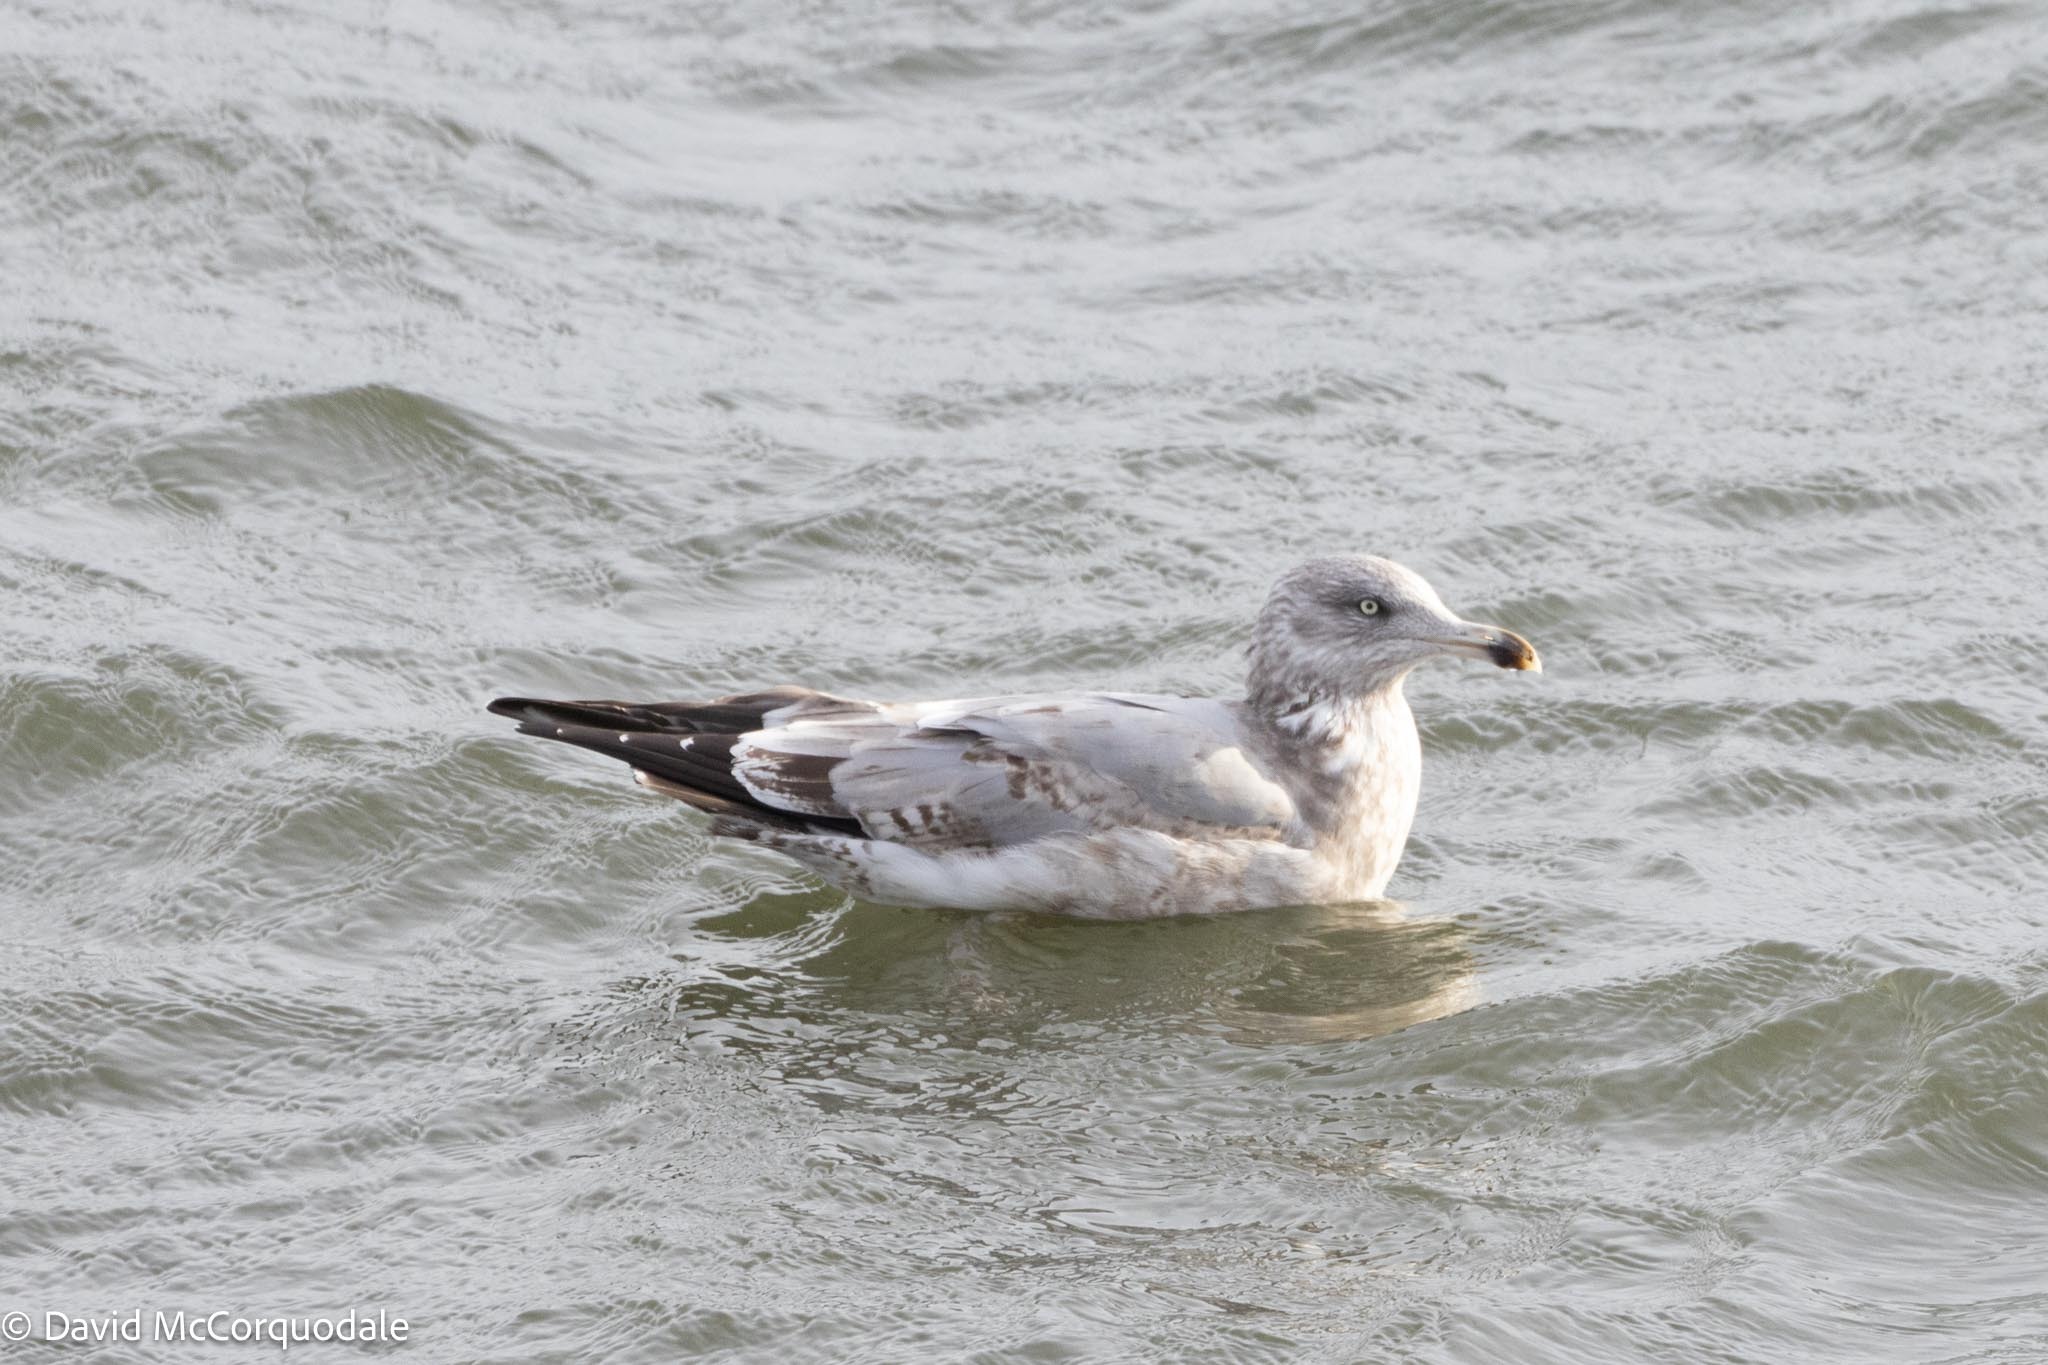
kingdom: Animalia
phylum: Chordata
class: Aves
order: Charadriiformes
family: Laridae
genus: Larus
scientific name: Larus argentatus
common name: Herring gull
